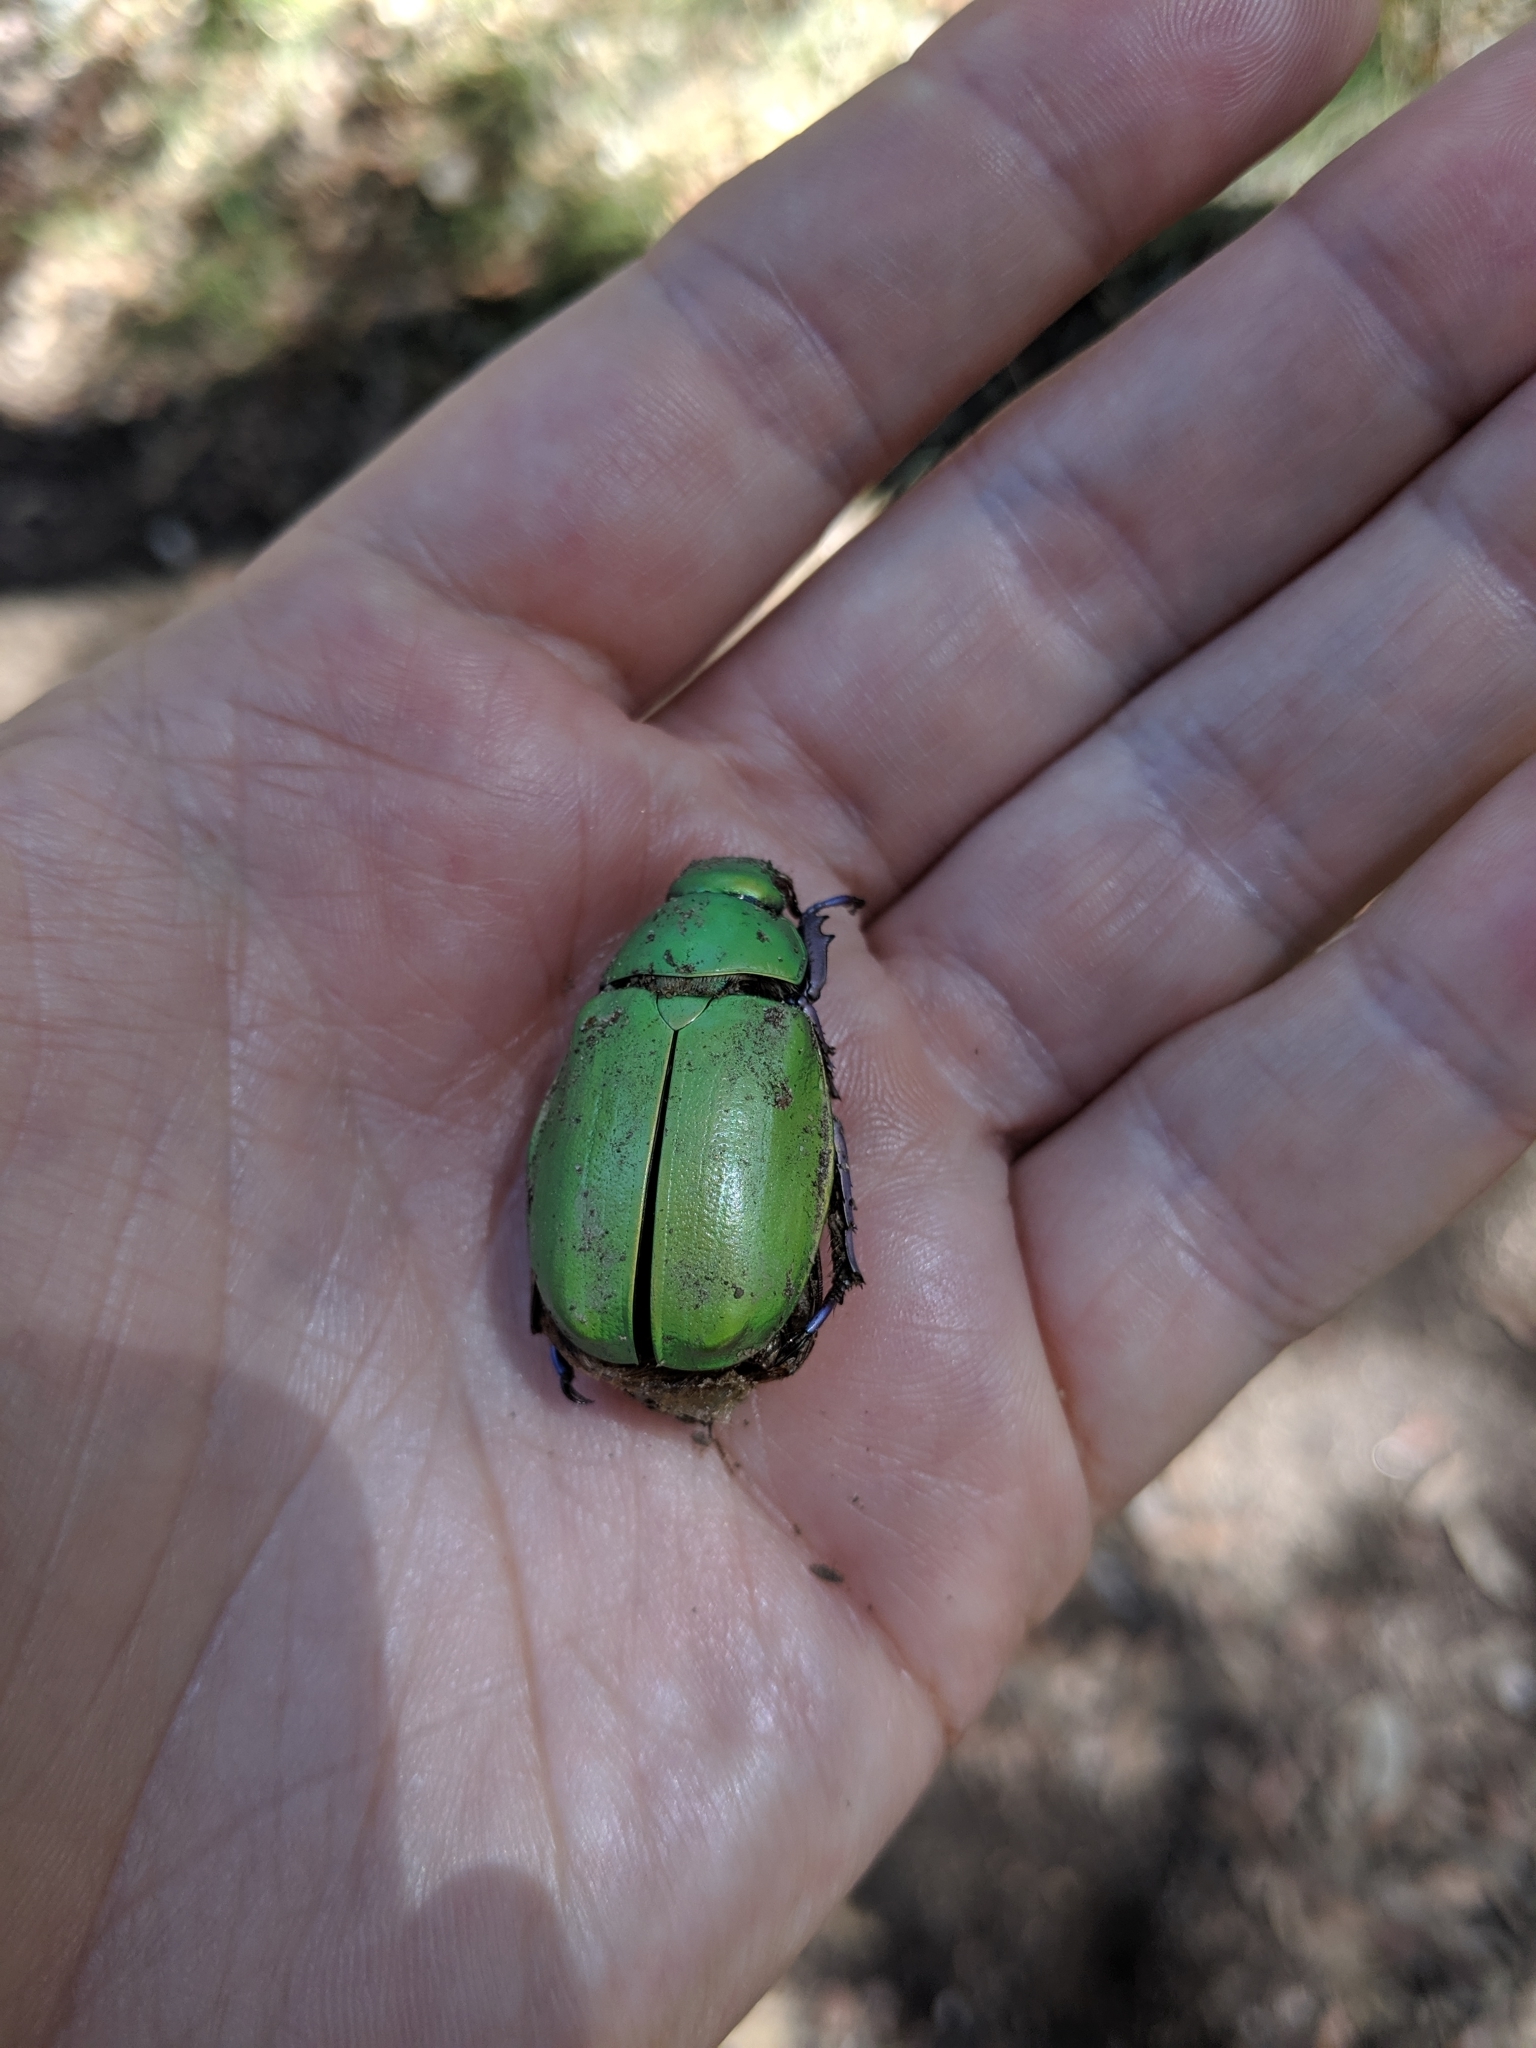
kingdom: Animalia
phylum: Arthropoda
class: Insecta
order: Coleoptera
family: Scarabaeidae
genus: Chrysina
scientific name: Chrysina beyeri
